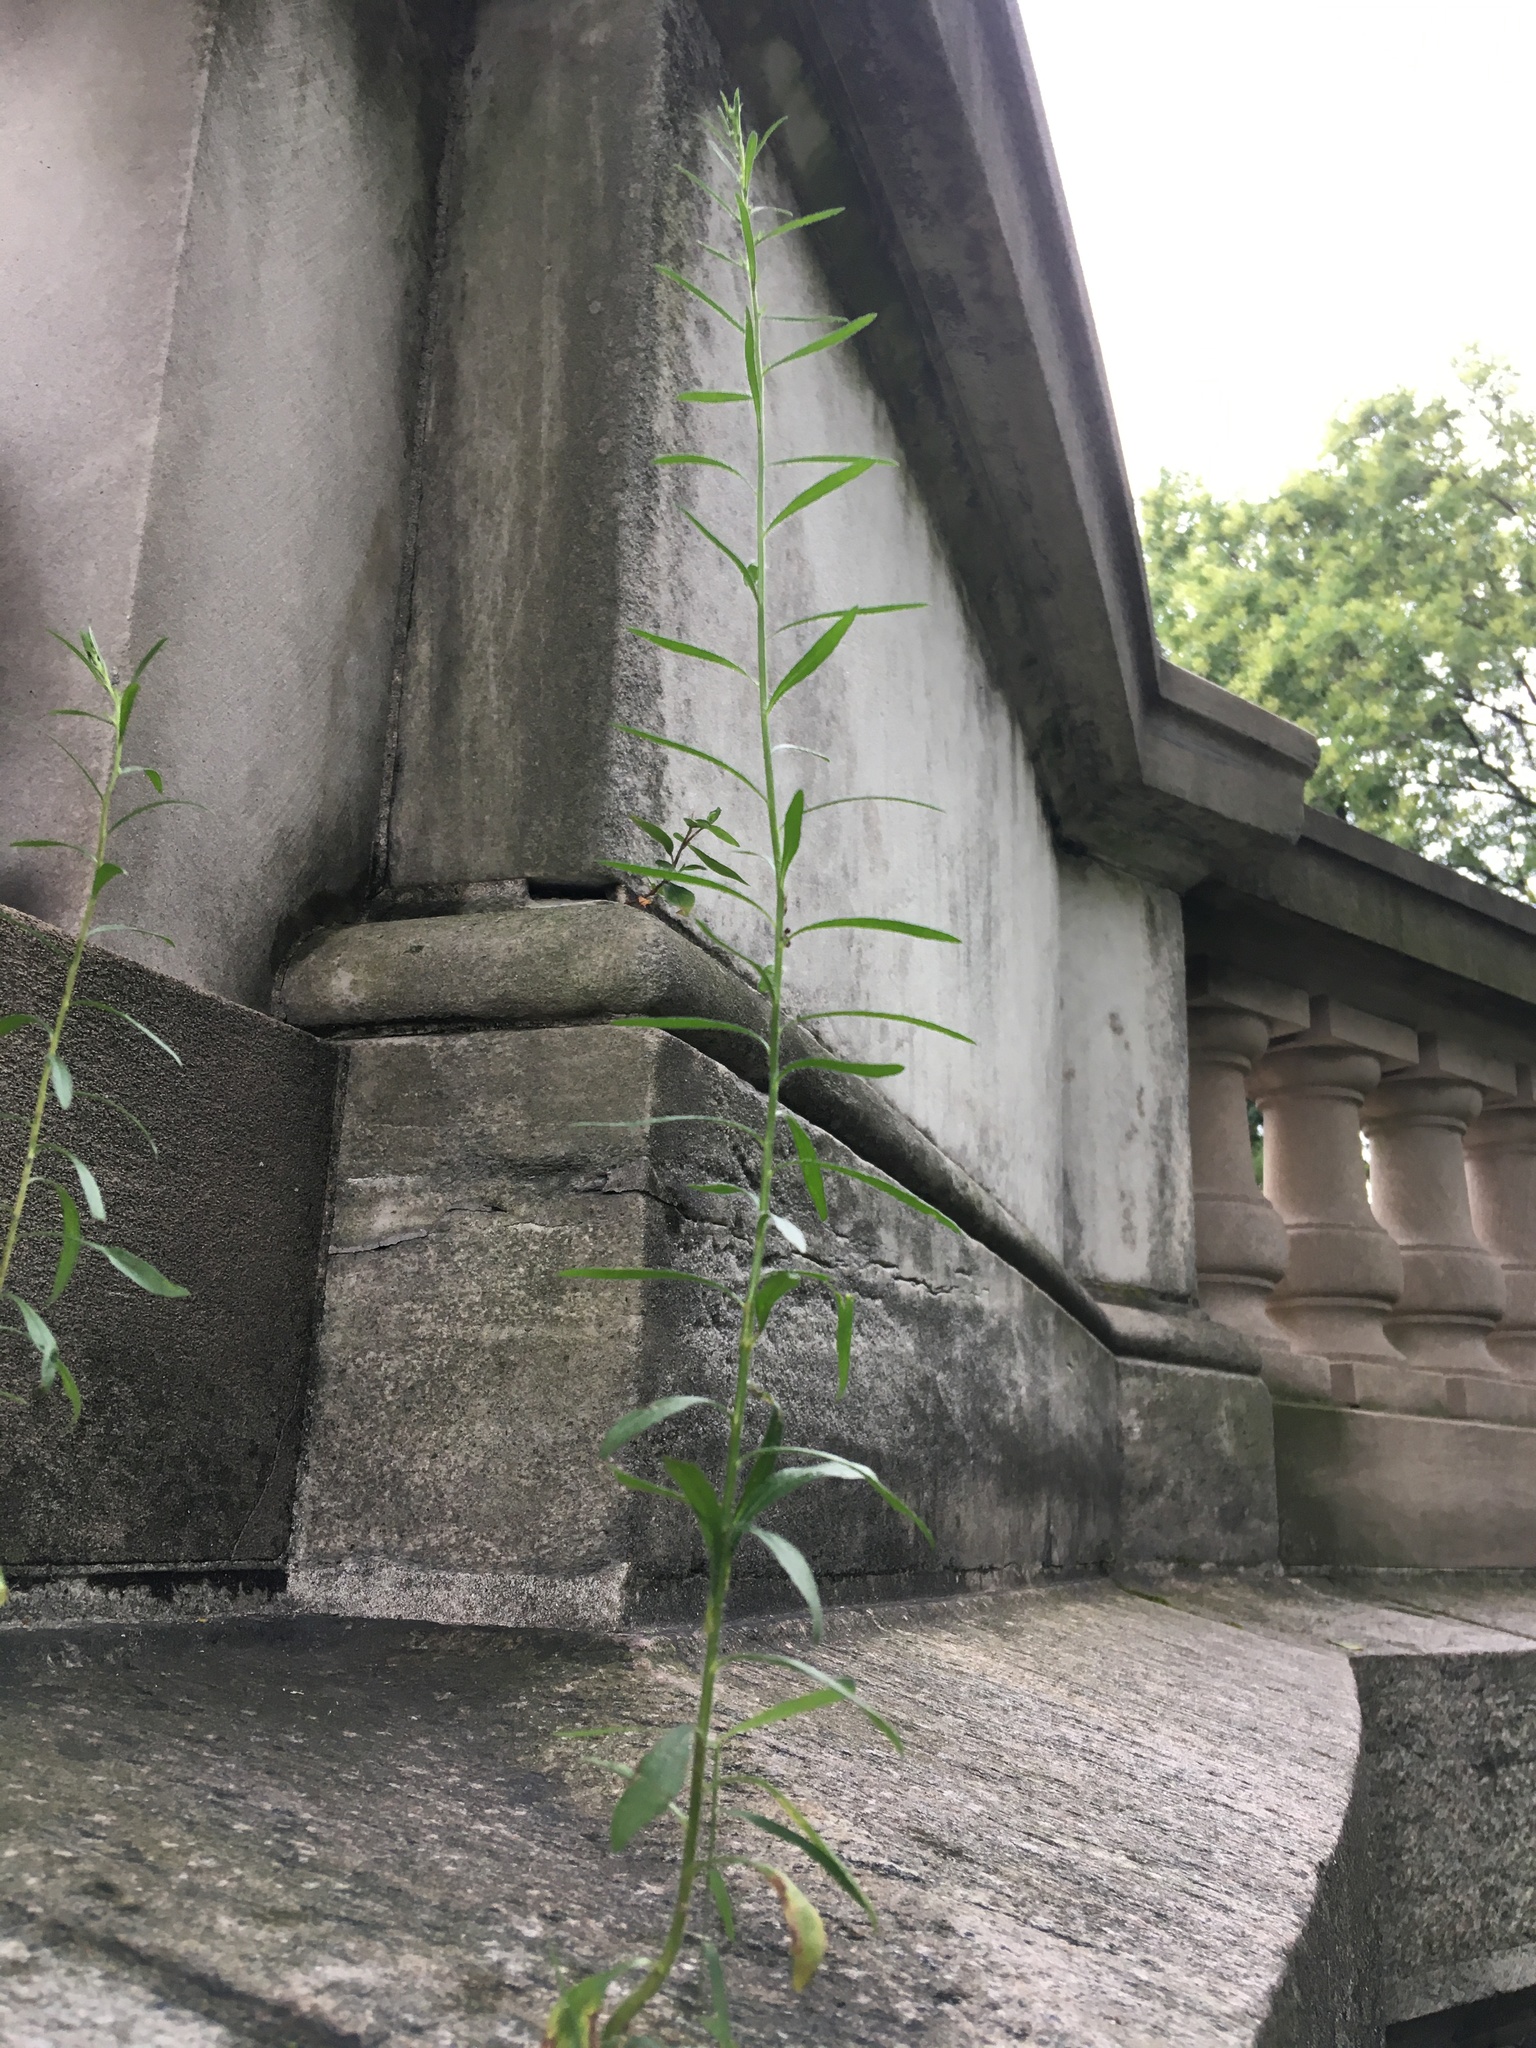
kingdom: Plantae
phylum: Tracheophyta
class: Magnoliopsida
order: Asterales
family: Asteraceae
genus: Erigeron
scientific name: Erigeron canadensis
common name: Canadian fleabane
